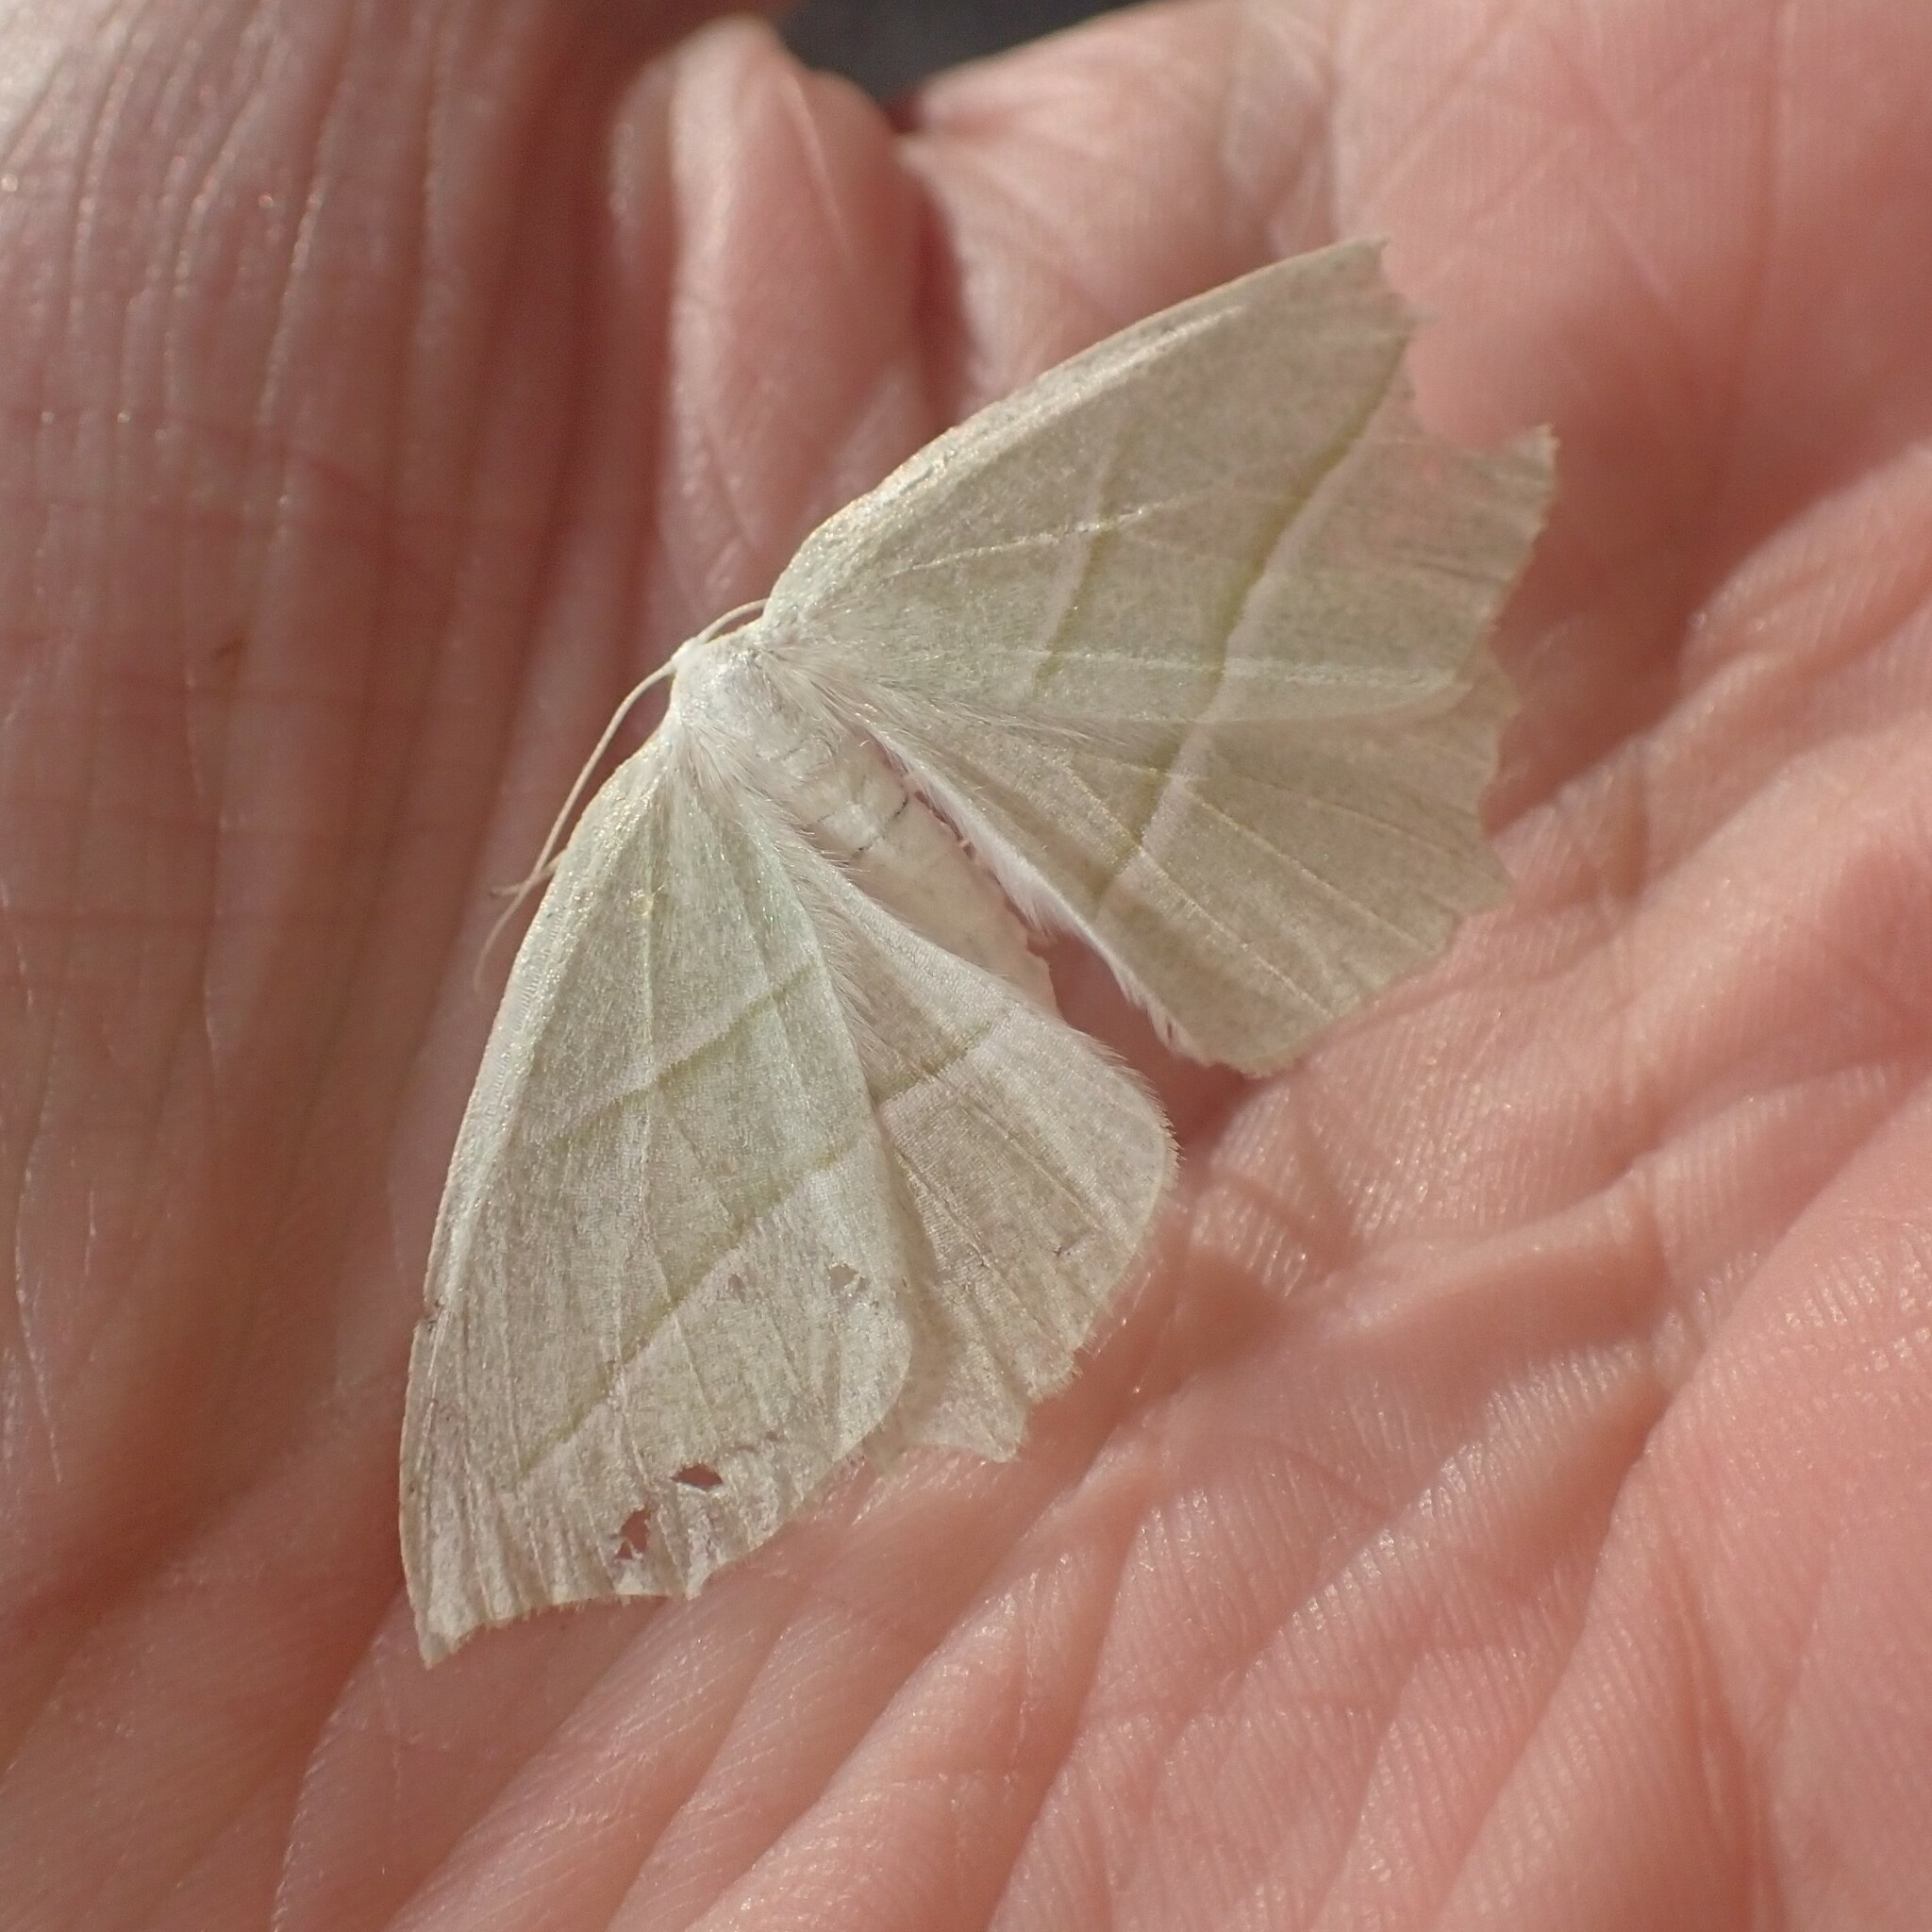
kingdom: Animalia
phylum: Arthropoda
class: Insecta
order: Lepidoptera
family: Geometridae
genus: Campaea
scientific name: Campaea perlata
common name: Fringed looper
